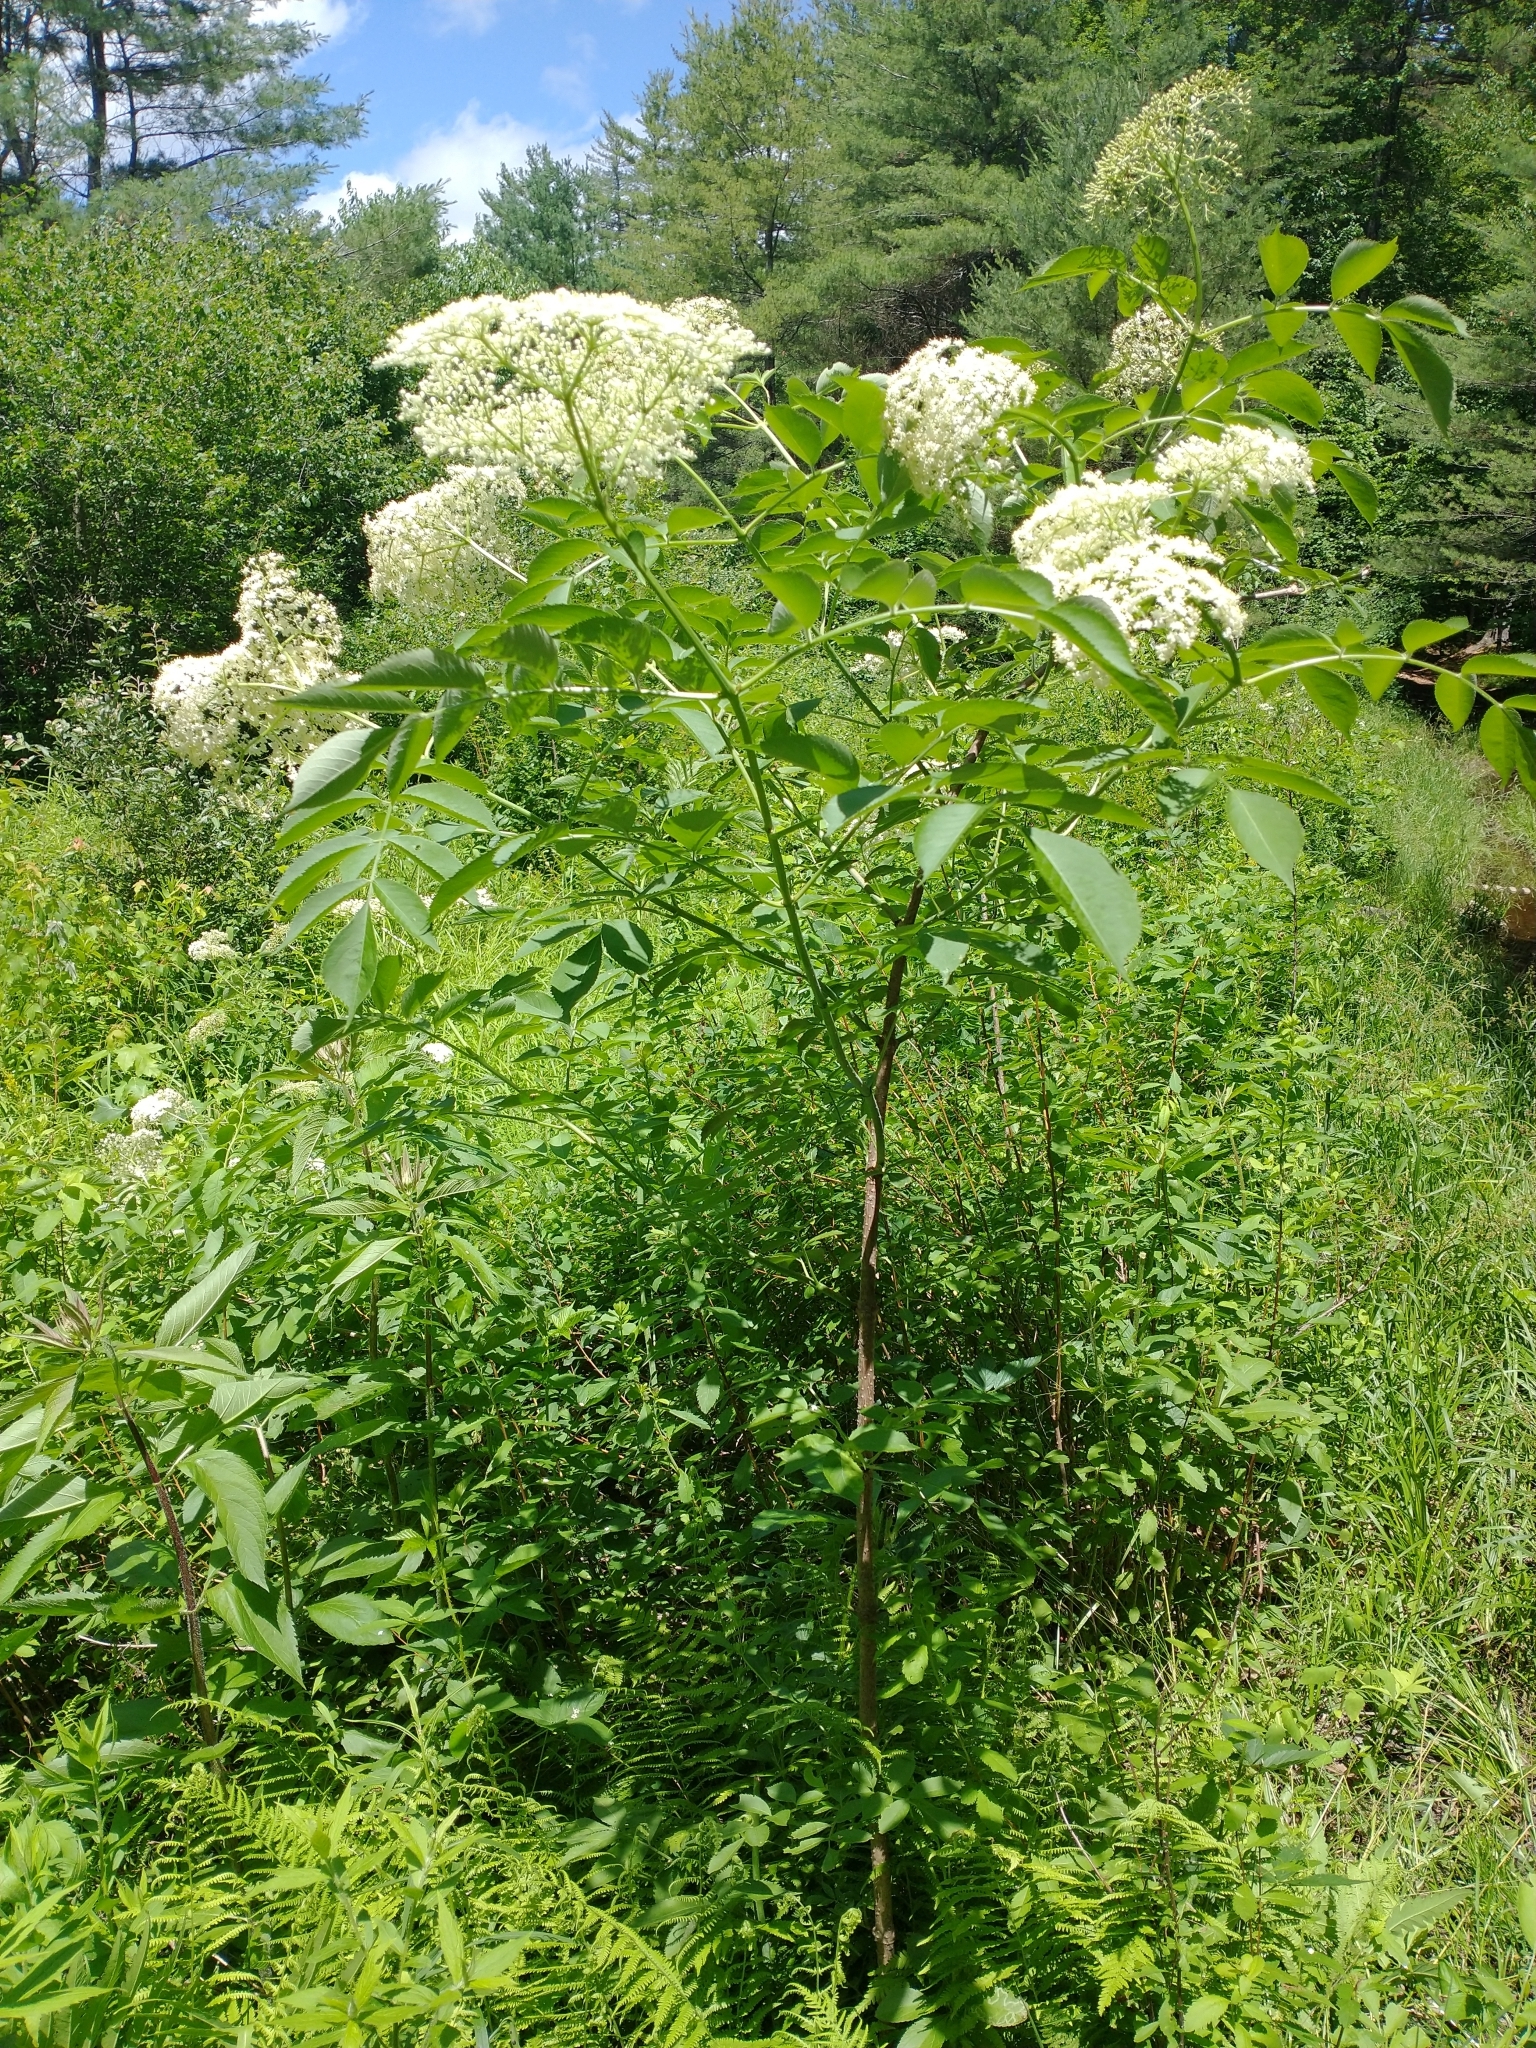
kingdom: Plantae
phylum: Tracheophyta
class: Magnoliopsida
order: Dipsacales
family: Viburnaceae
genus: Sambucus
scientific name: Sambucus canadensis
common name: American elder
